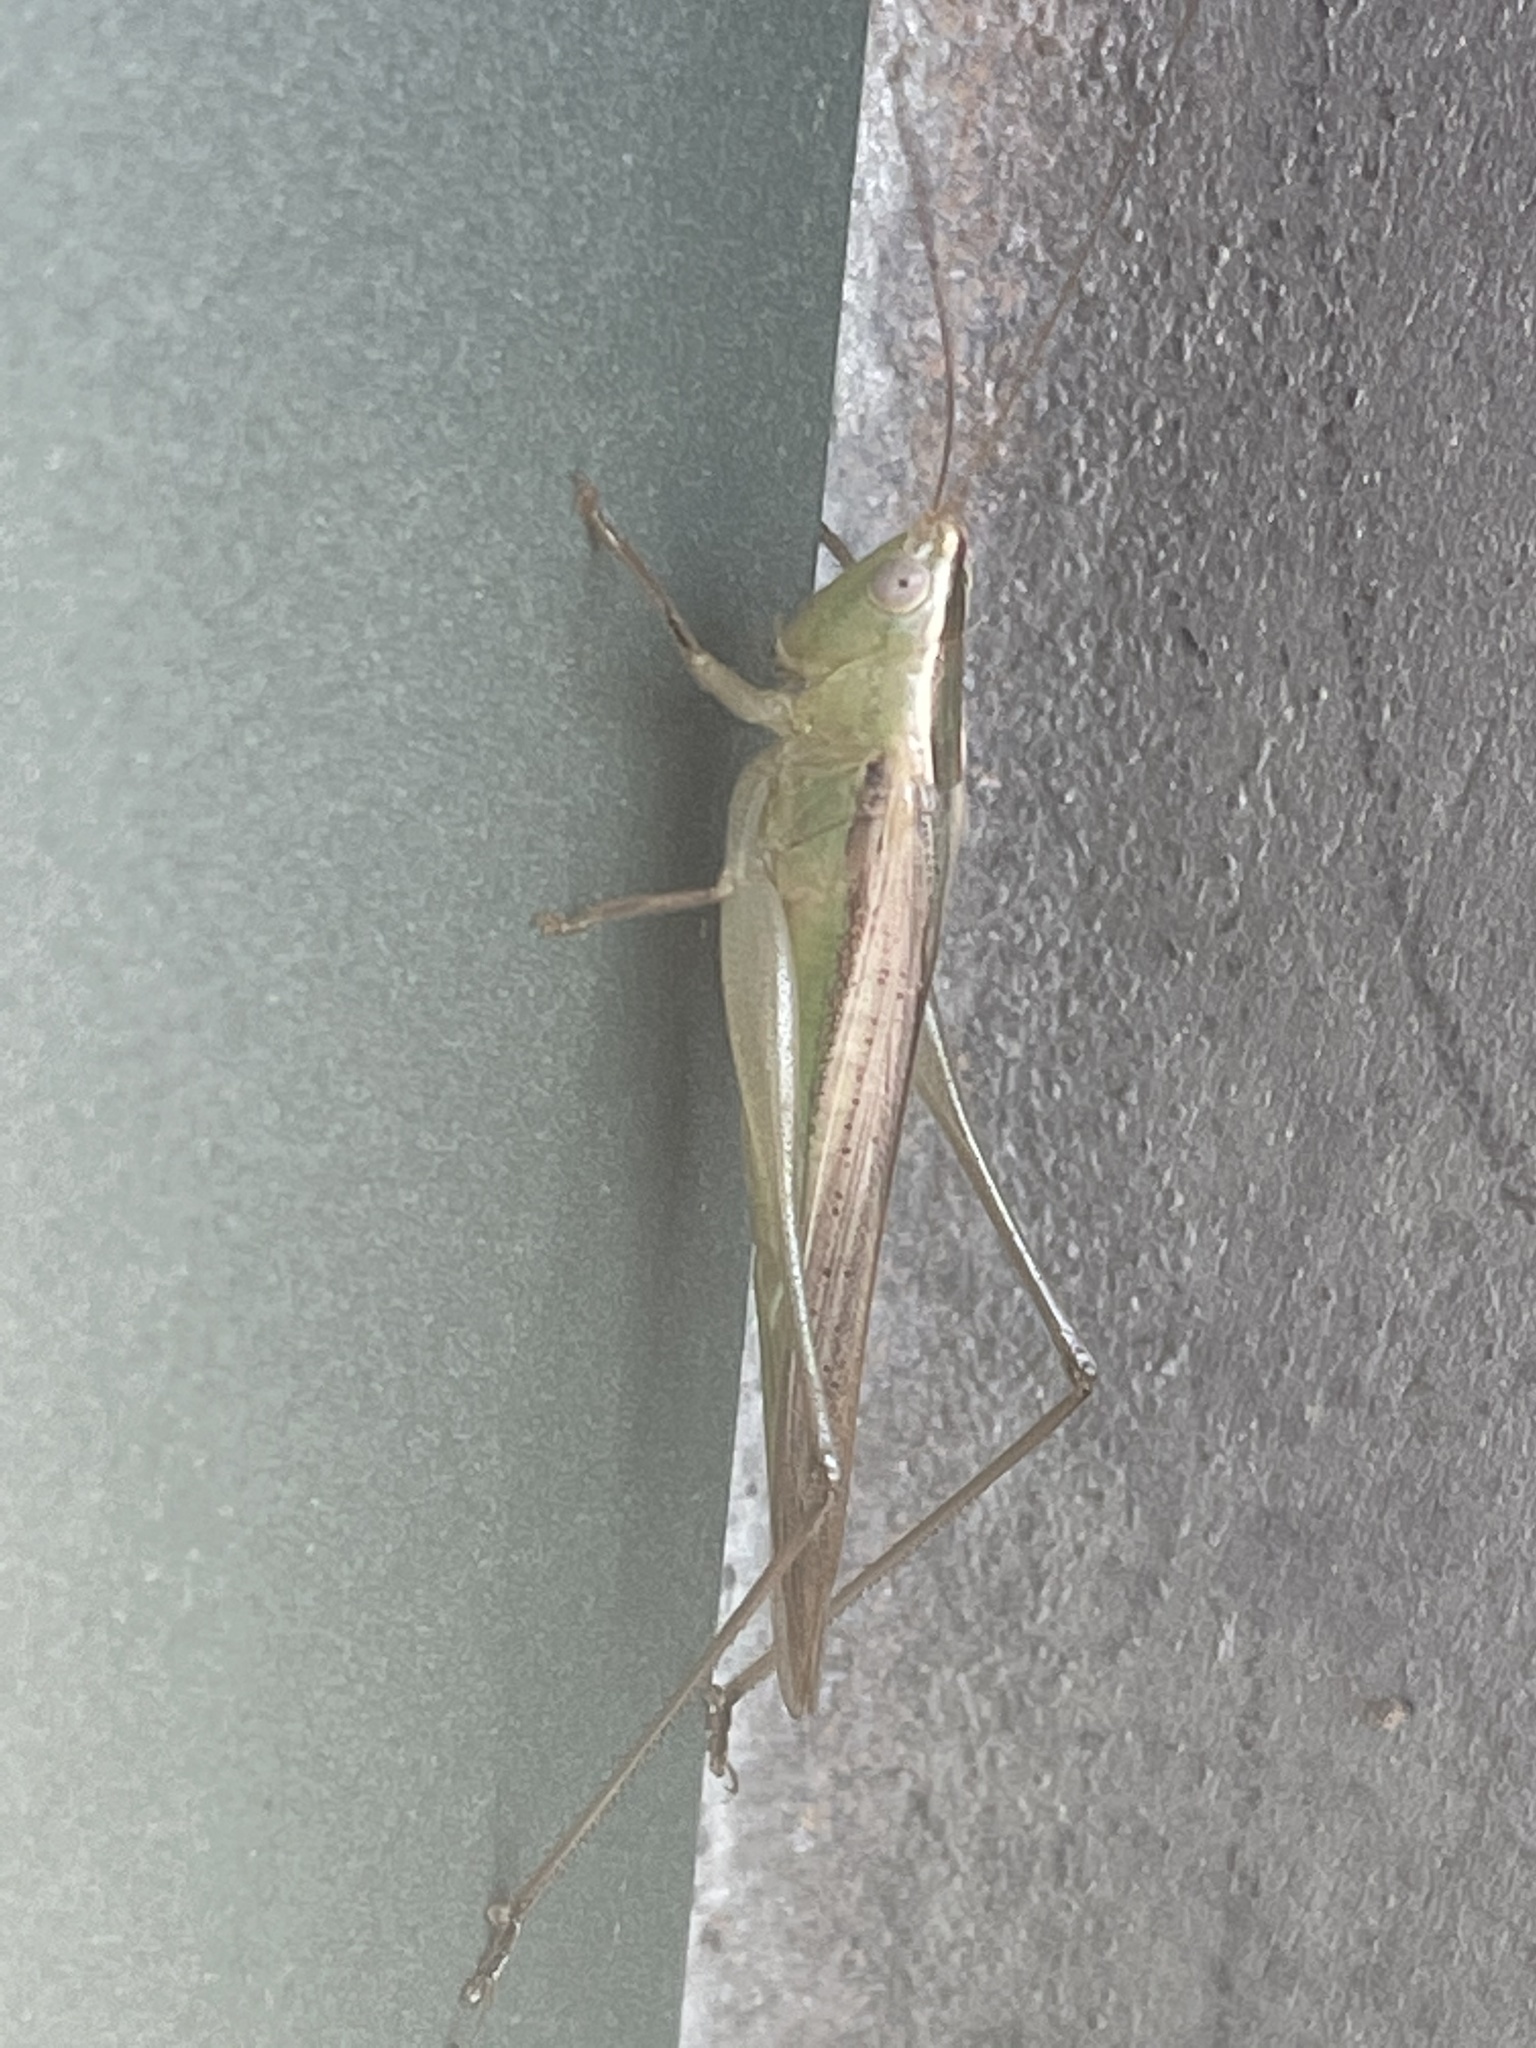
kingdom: Animalia
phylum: Arthropoda
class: Insecta
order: Orthoptera
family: Tettigoniidae
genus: Conocephalus
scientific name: Conocephalus upoluensis
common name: Upolu meadow katydid
